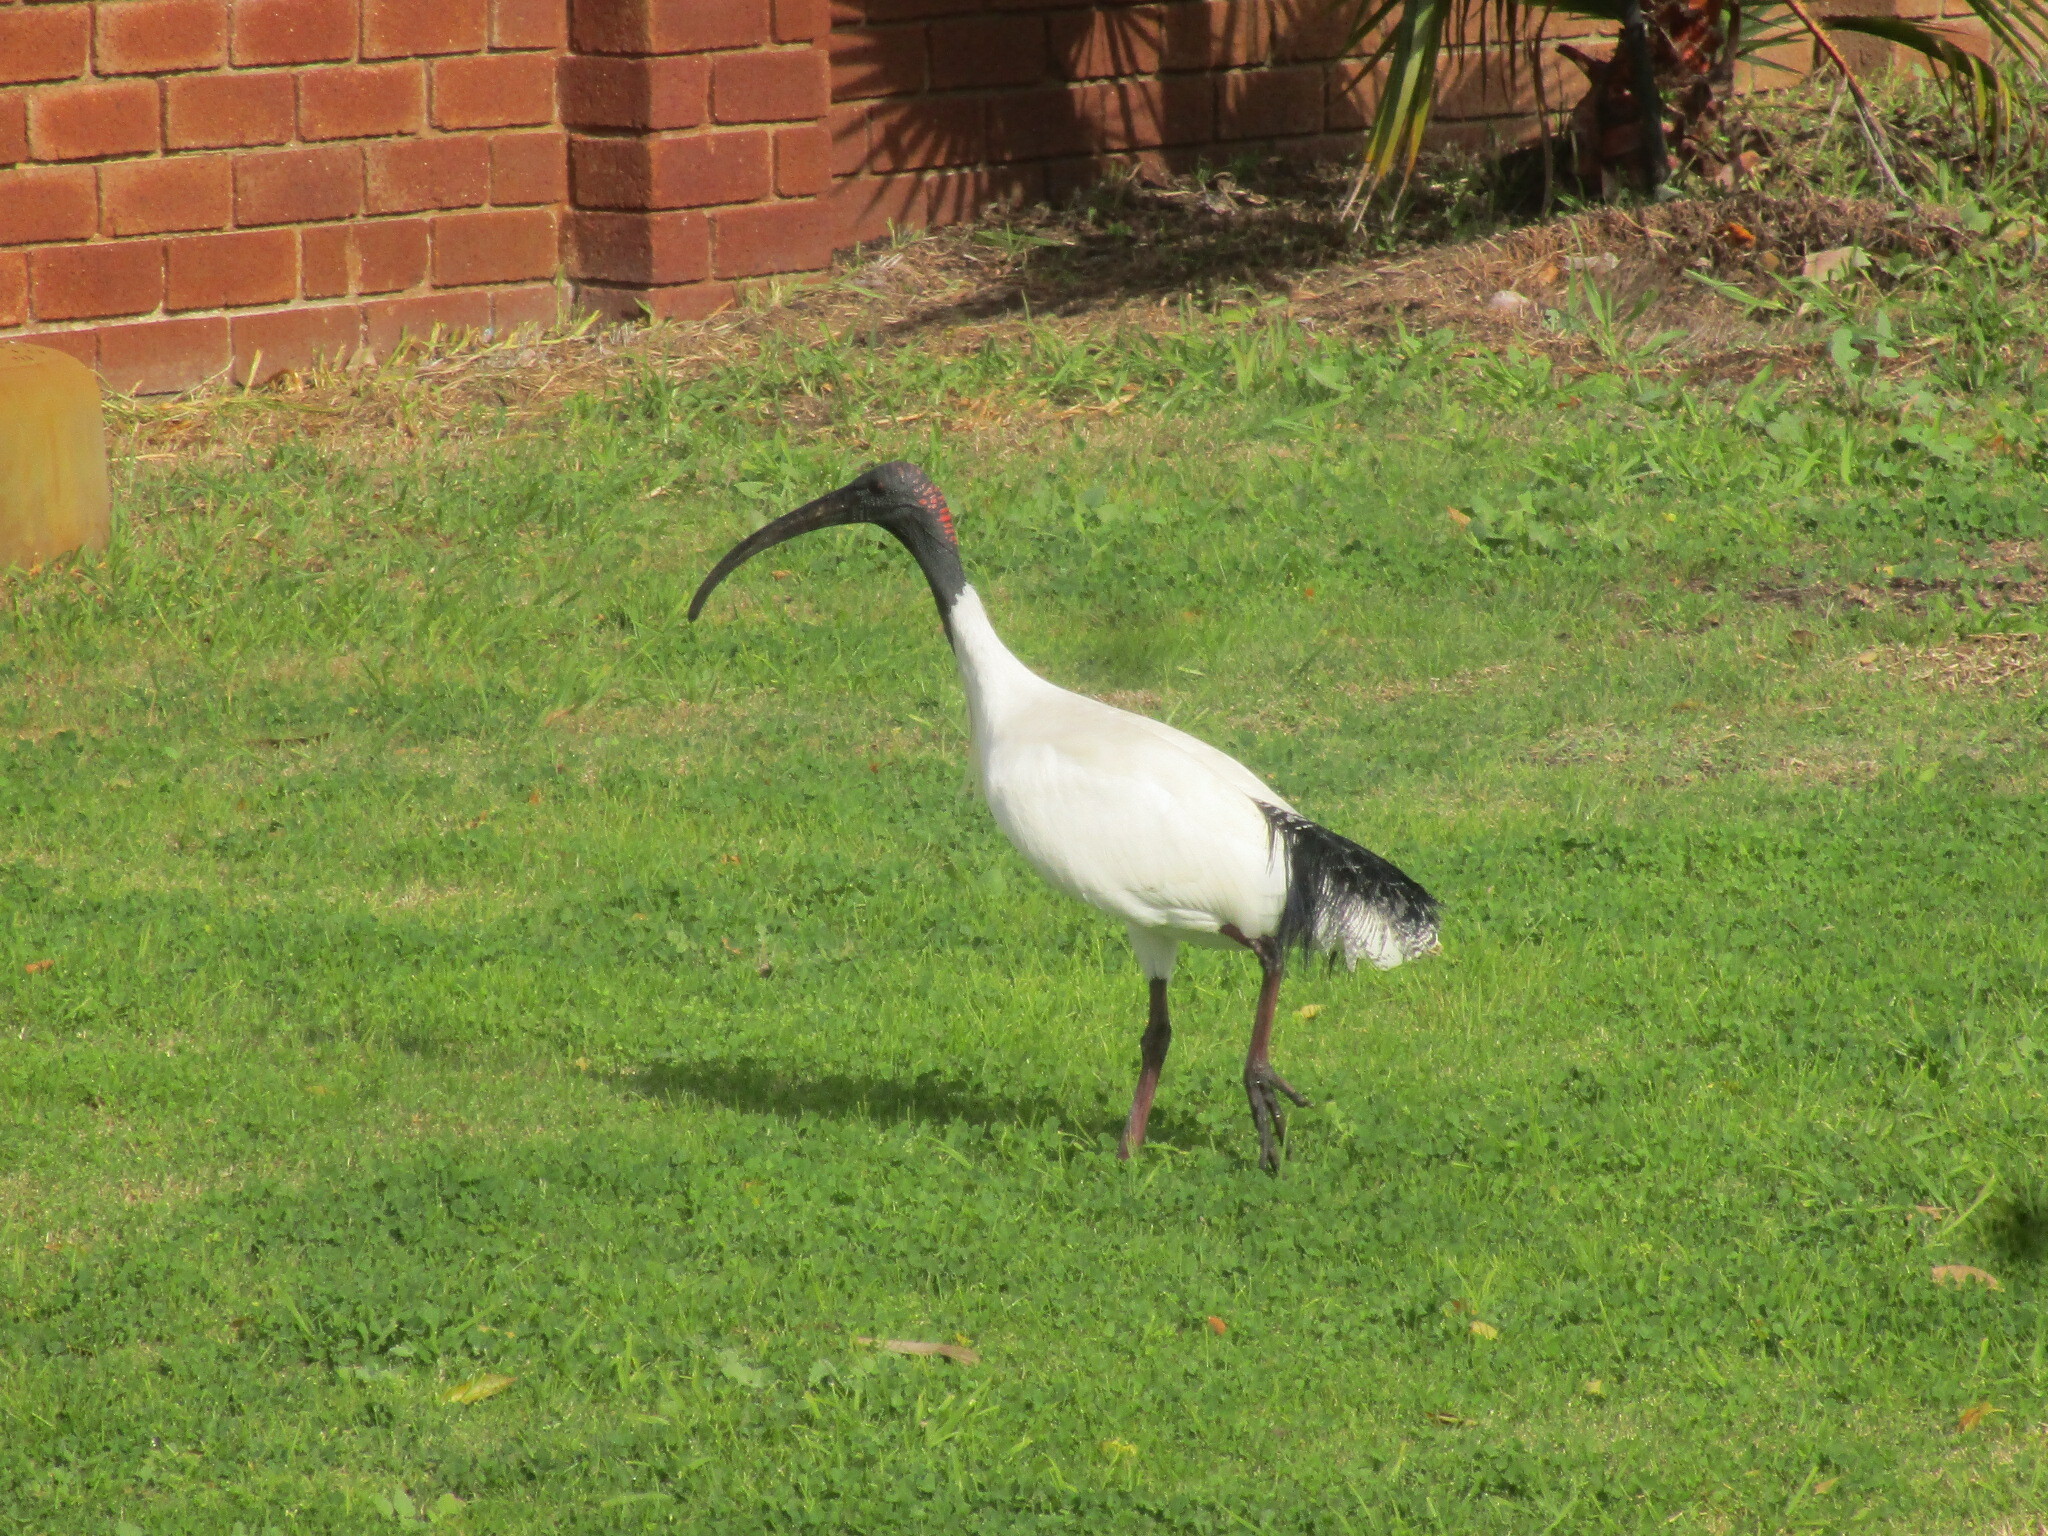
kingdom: Animalia
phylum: Chordata
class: Aves
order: Pelecaniformes
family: Threskiornithidae
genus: Threskiornis
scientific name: Threskiornis molucca
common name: Australian white ibis
